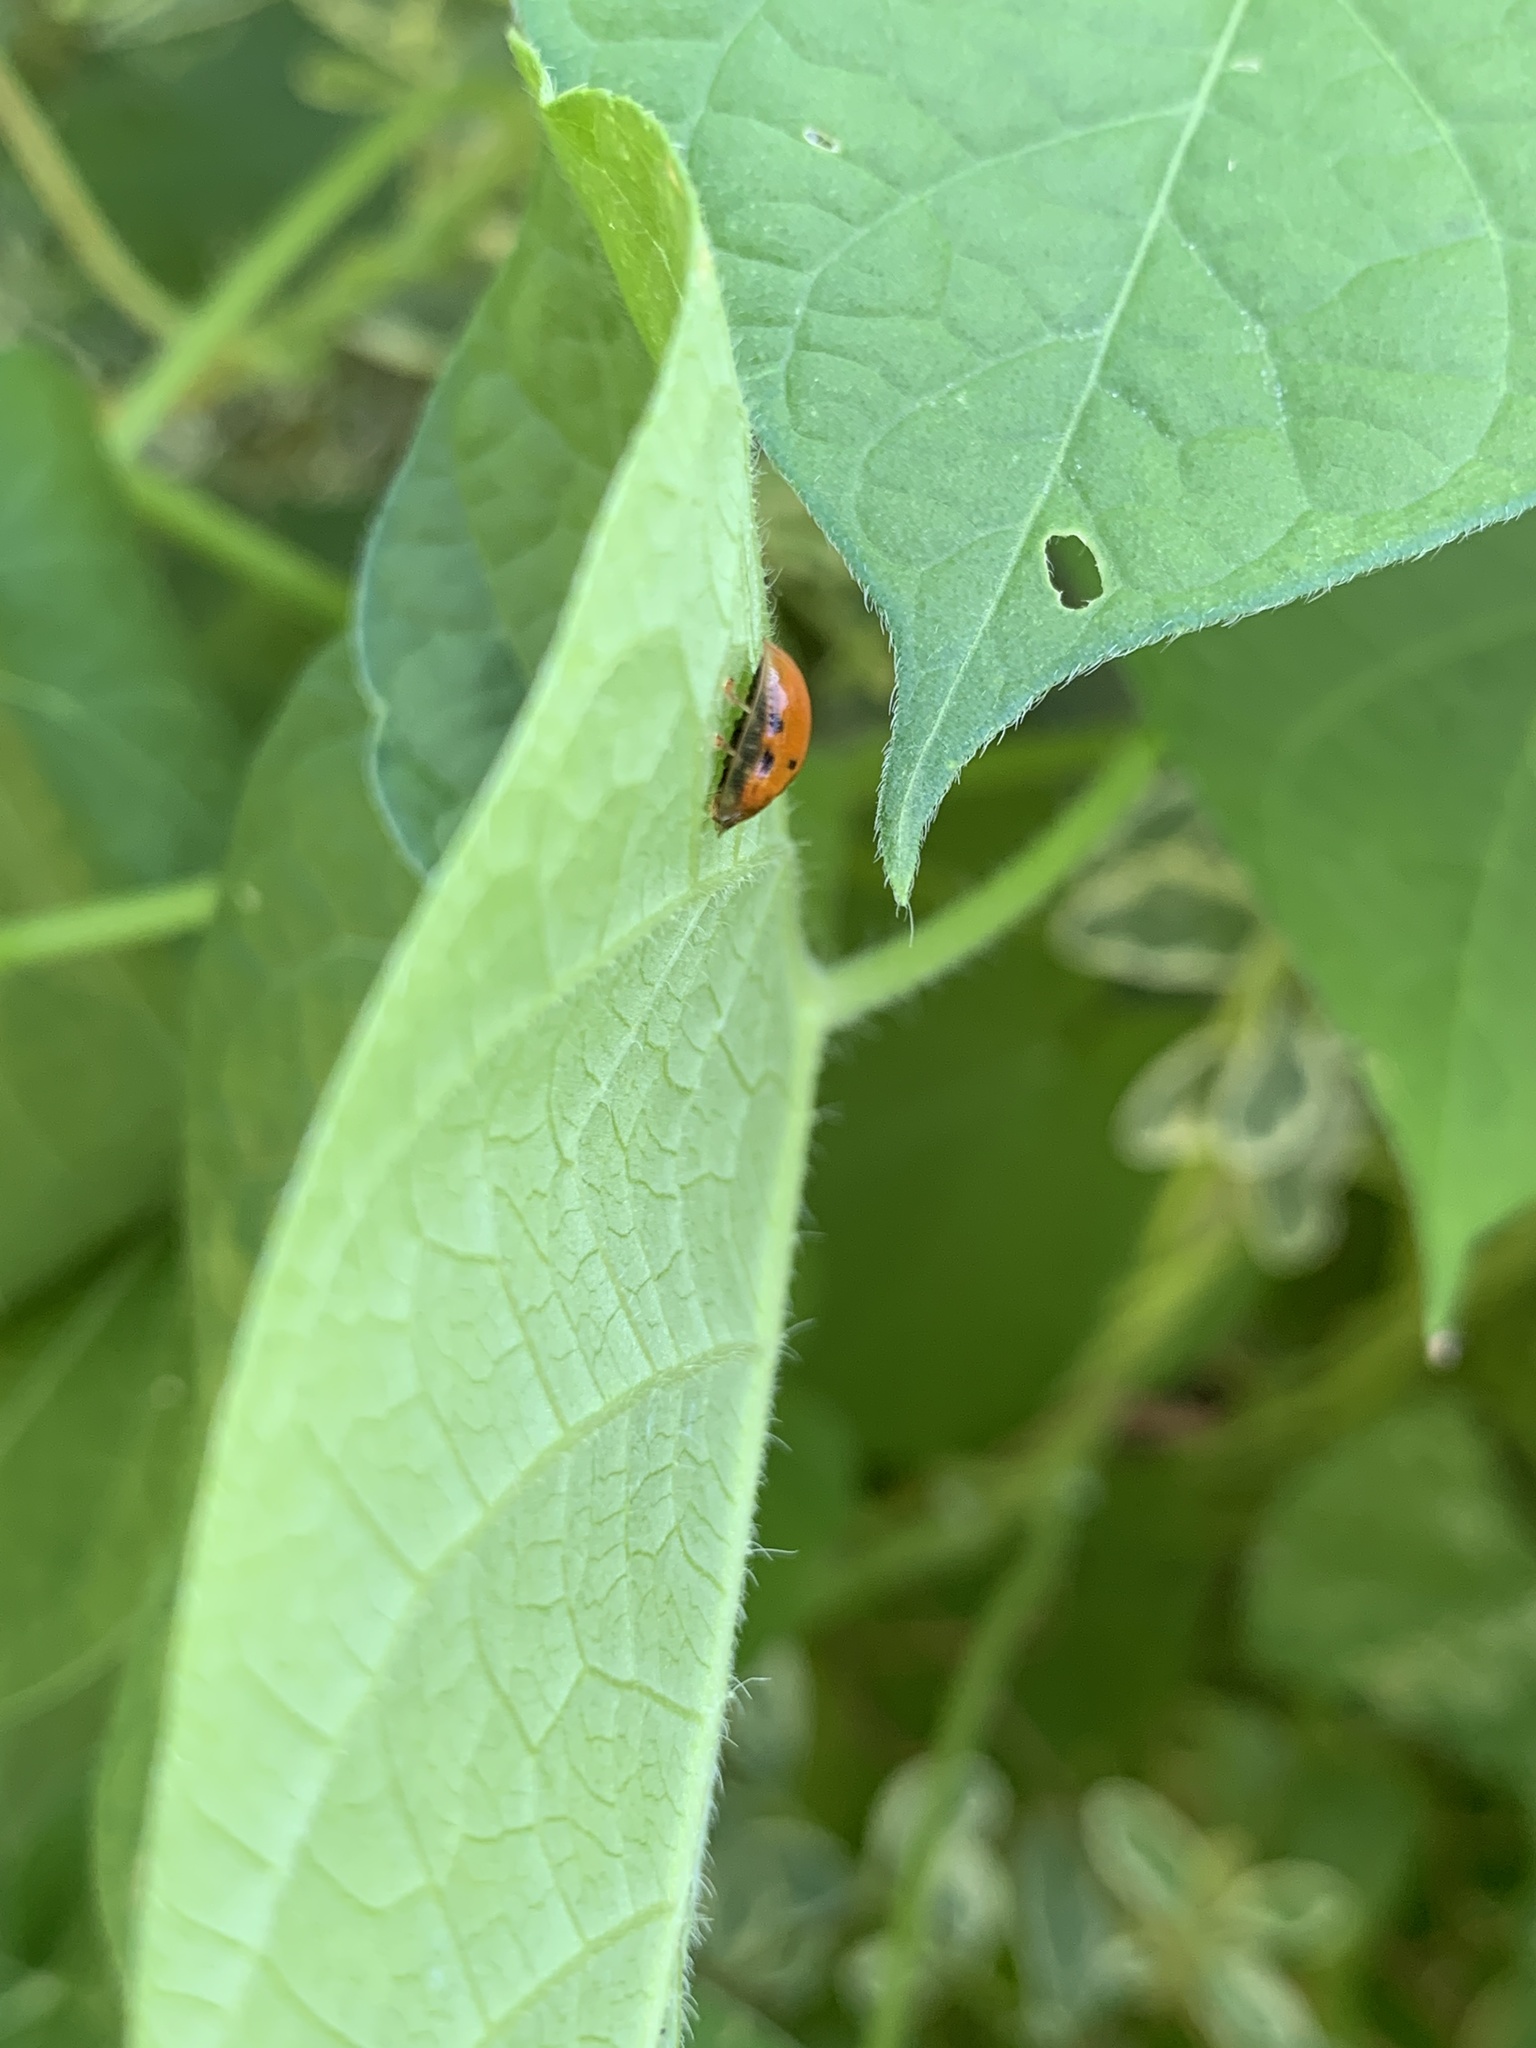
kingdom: Animalia
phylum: Arthropoda
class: Insecta
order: Coleoptera
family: Chrysomelidae
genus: Charidotella
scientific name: Charidotella sexpunctata
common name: Golden tortoise beetle
